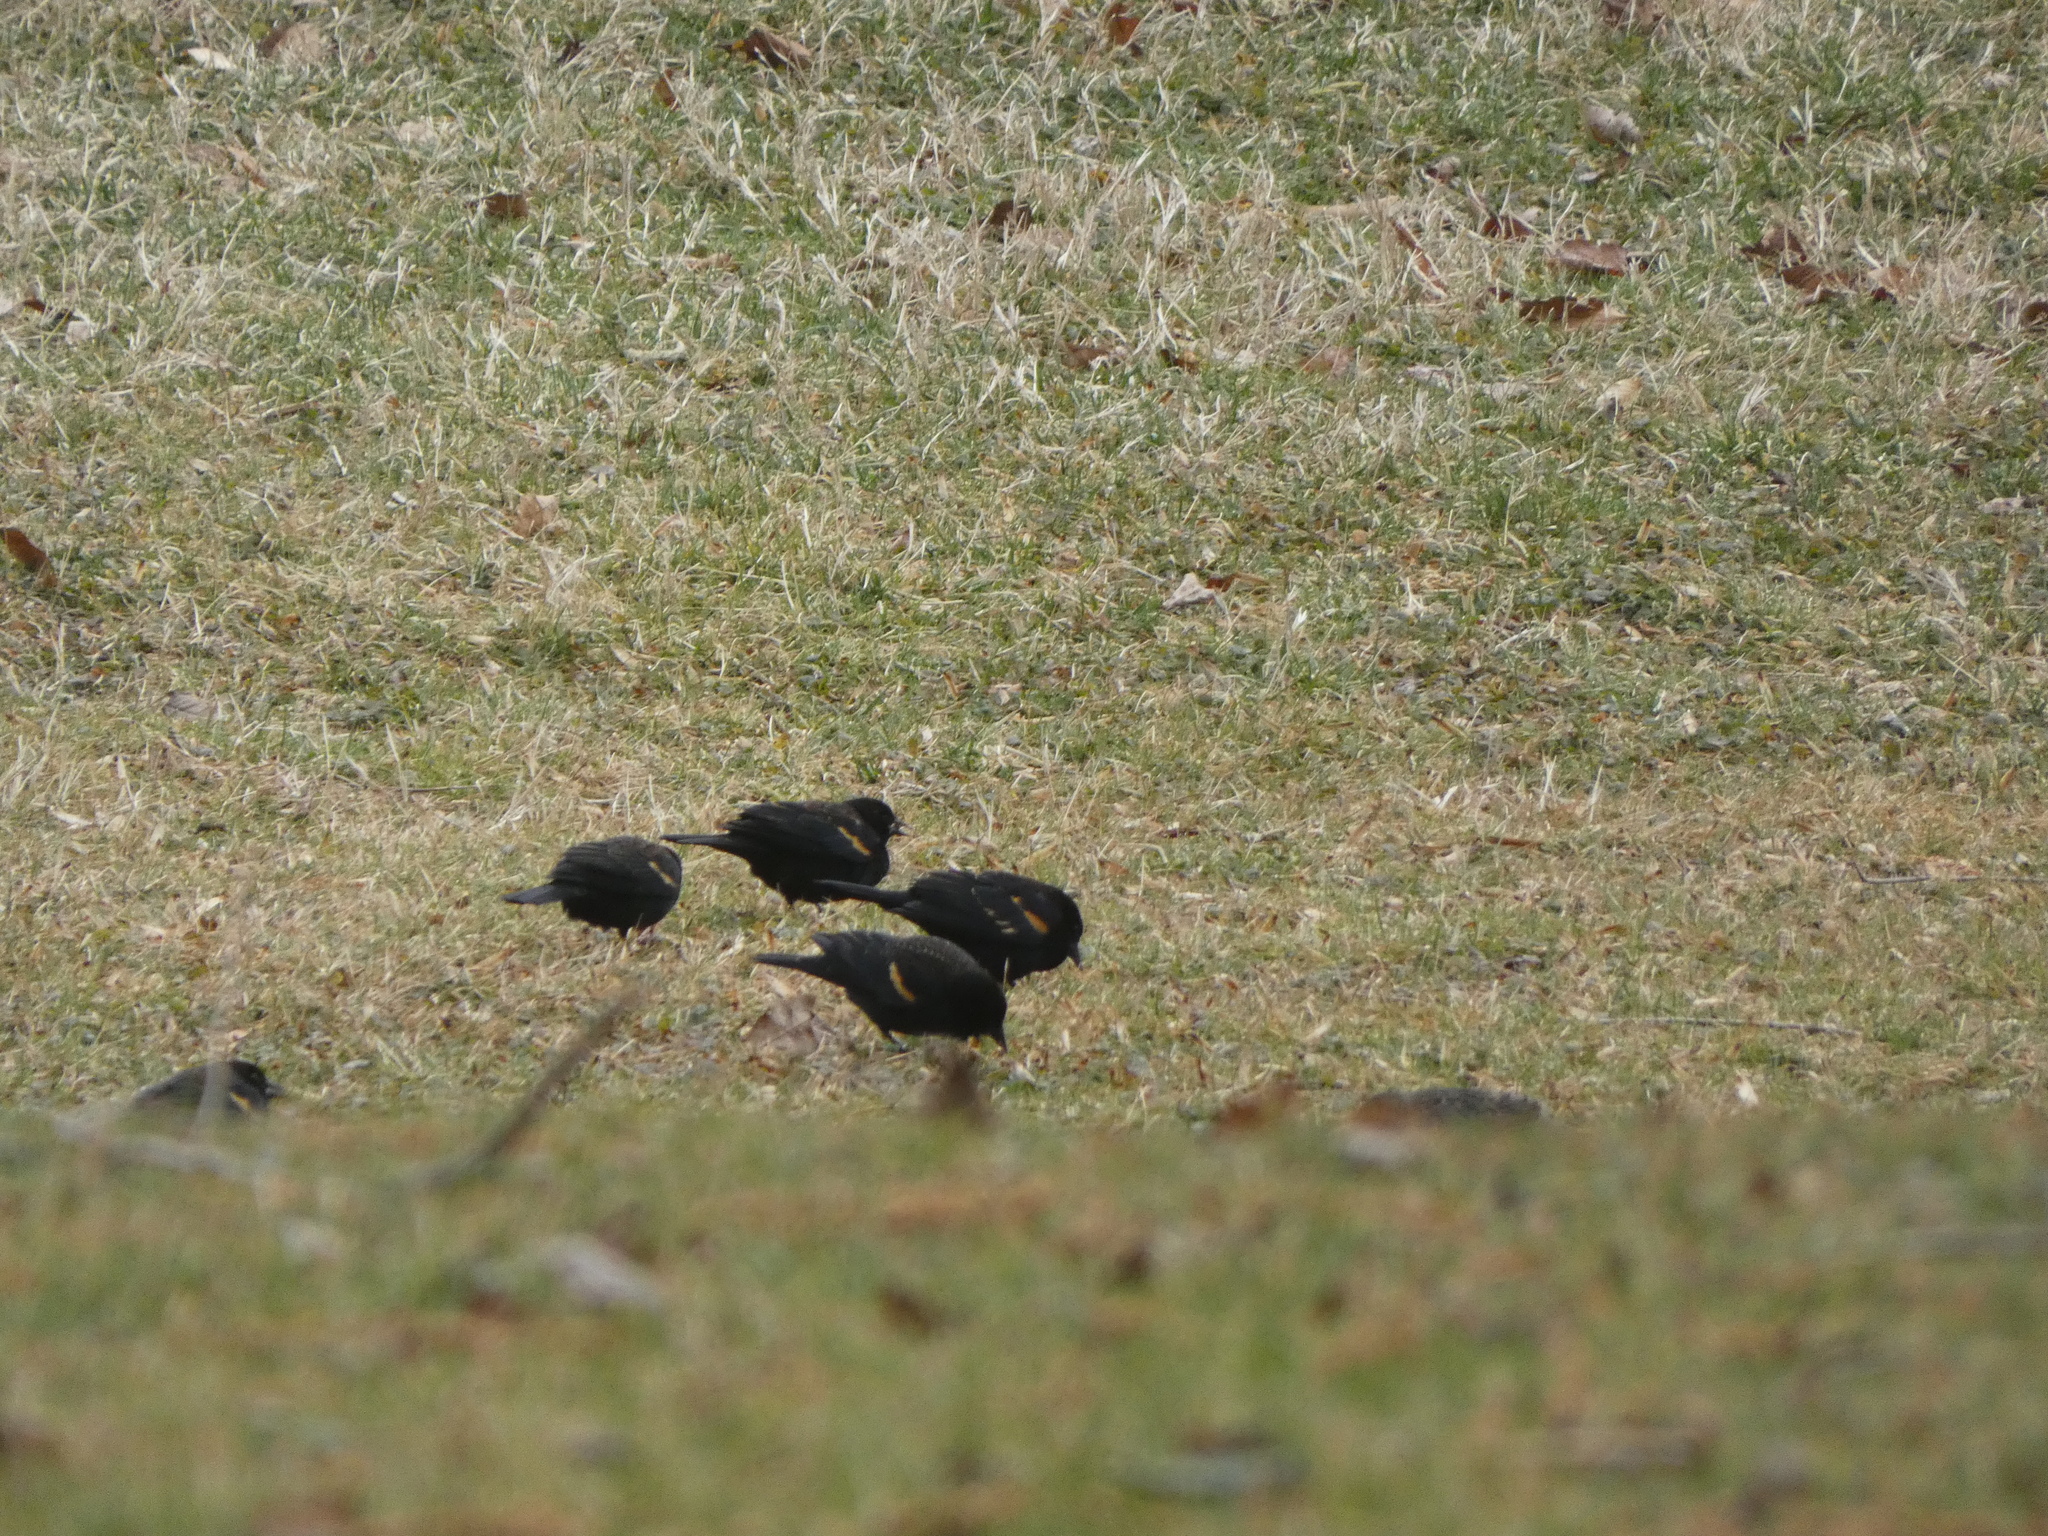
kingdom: Animalia
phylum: Chordata
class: Aves
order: Passeriformes
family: Icteridae
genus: Agelaius
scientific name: Agelaius phoeniceus
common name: Red-winged blackbird
